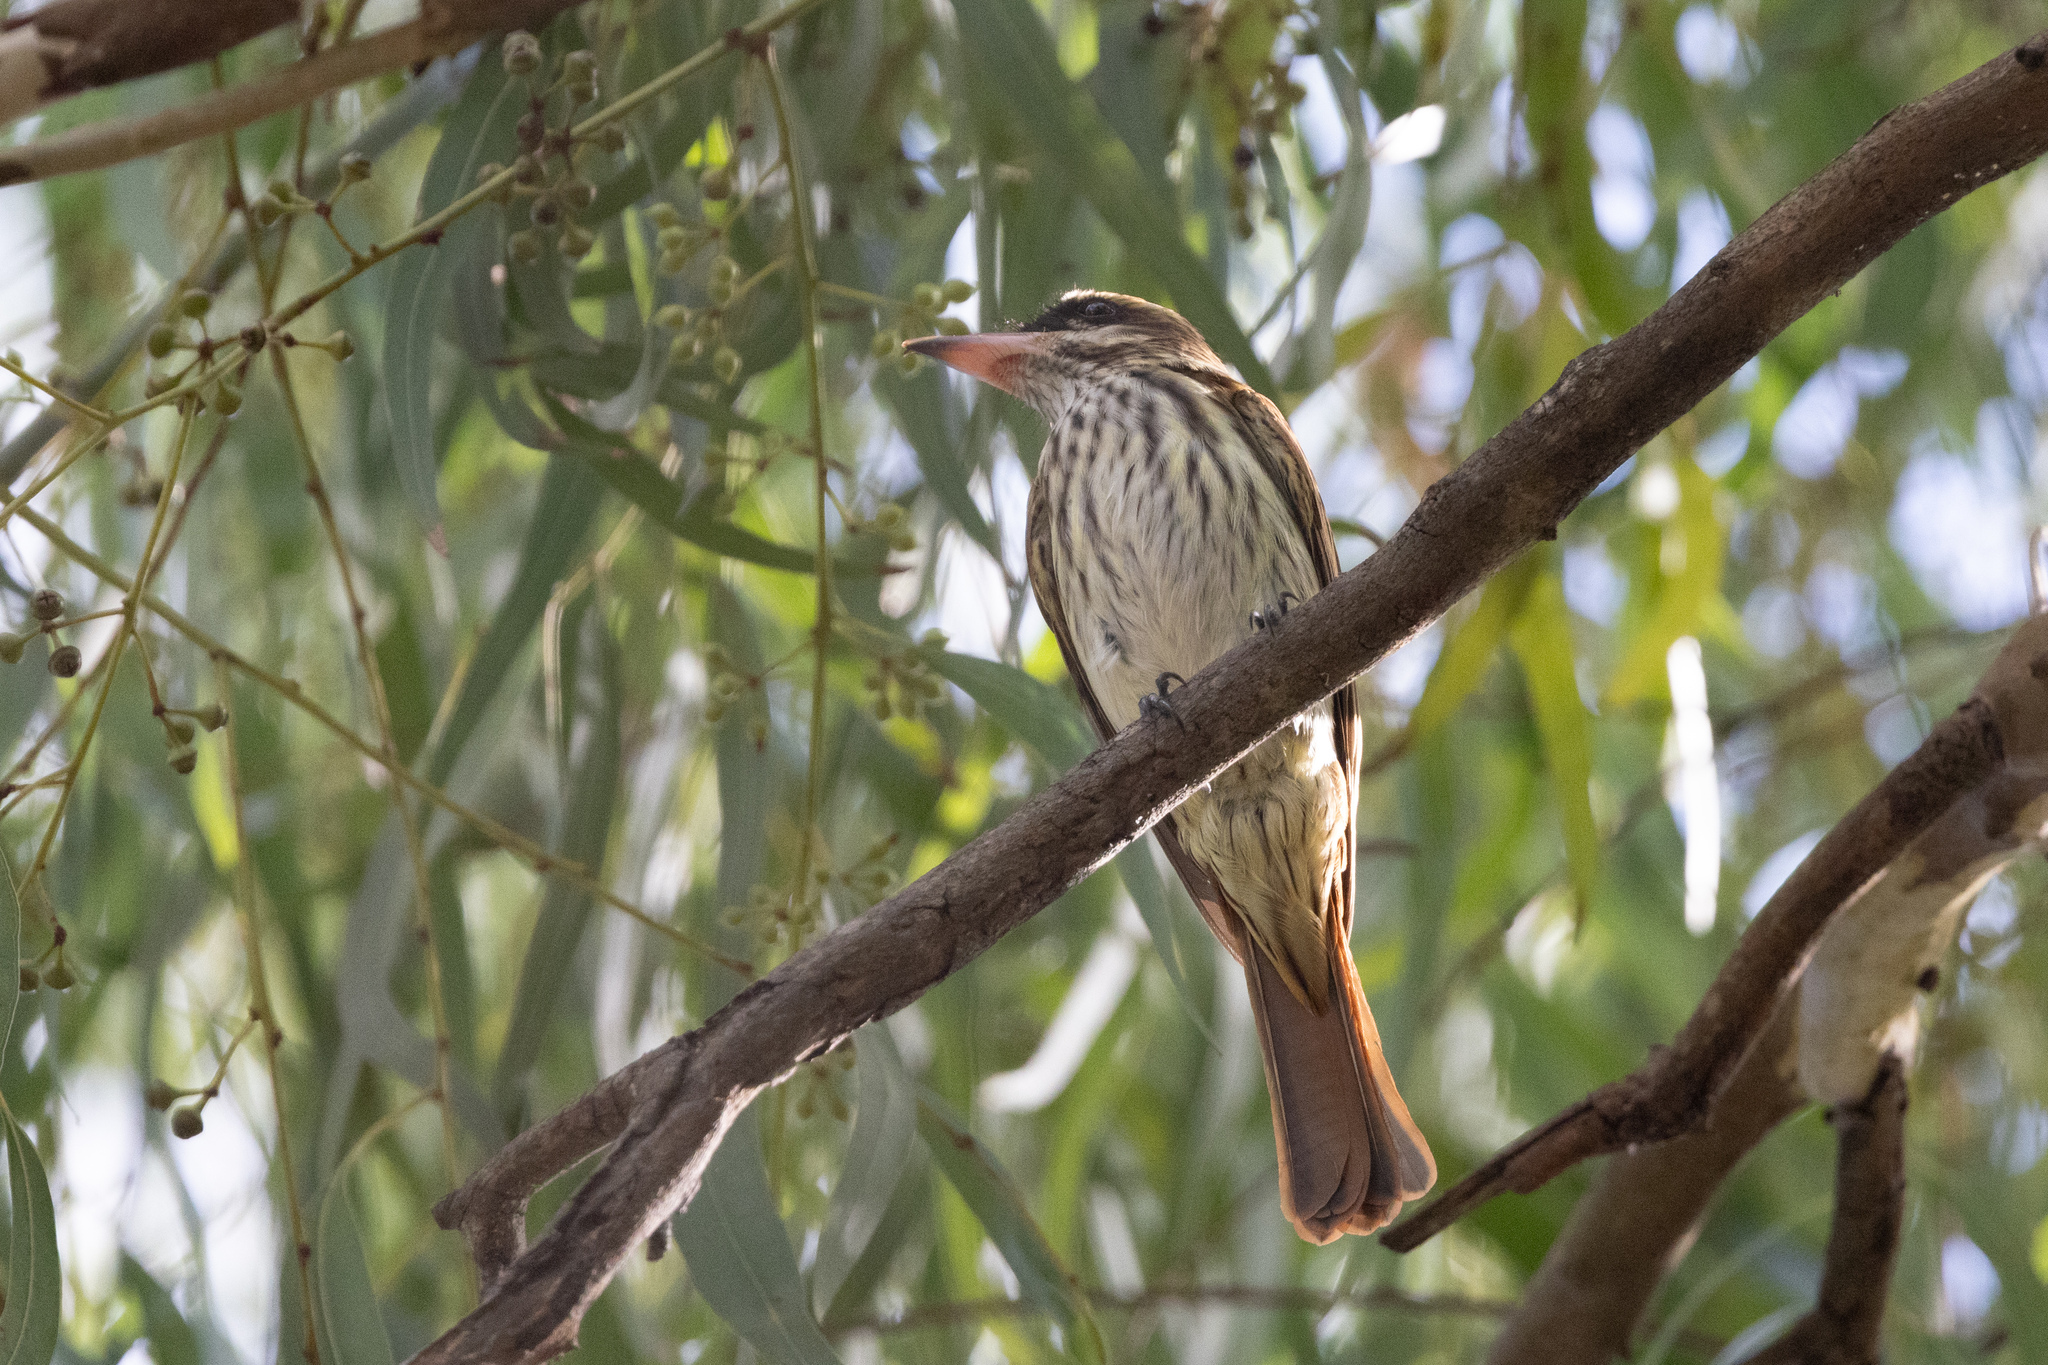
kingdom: Animalia
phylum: Chordata
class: Aves
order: Passeriformes
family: Tyrannidae
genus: Myiodynastes
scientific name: Myiodynastes maculatus
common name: Streaked flycatcher
